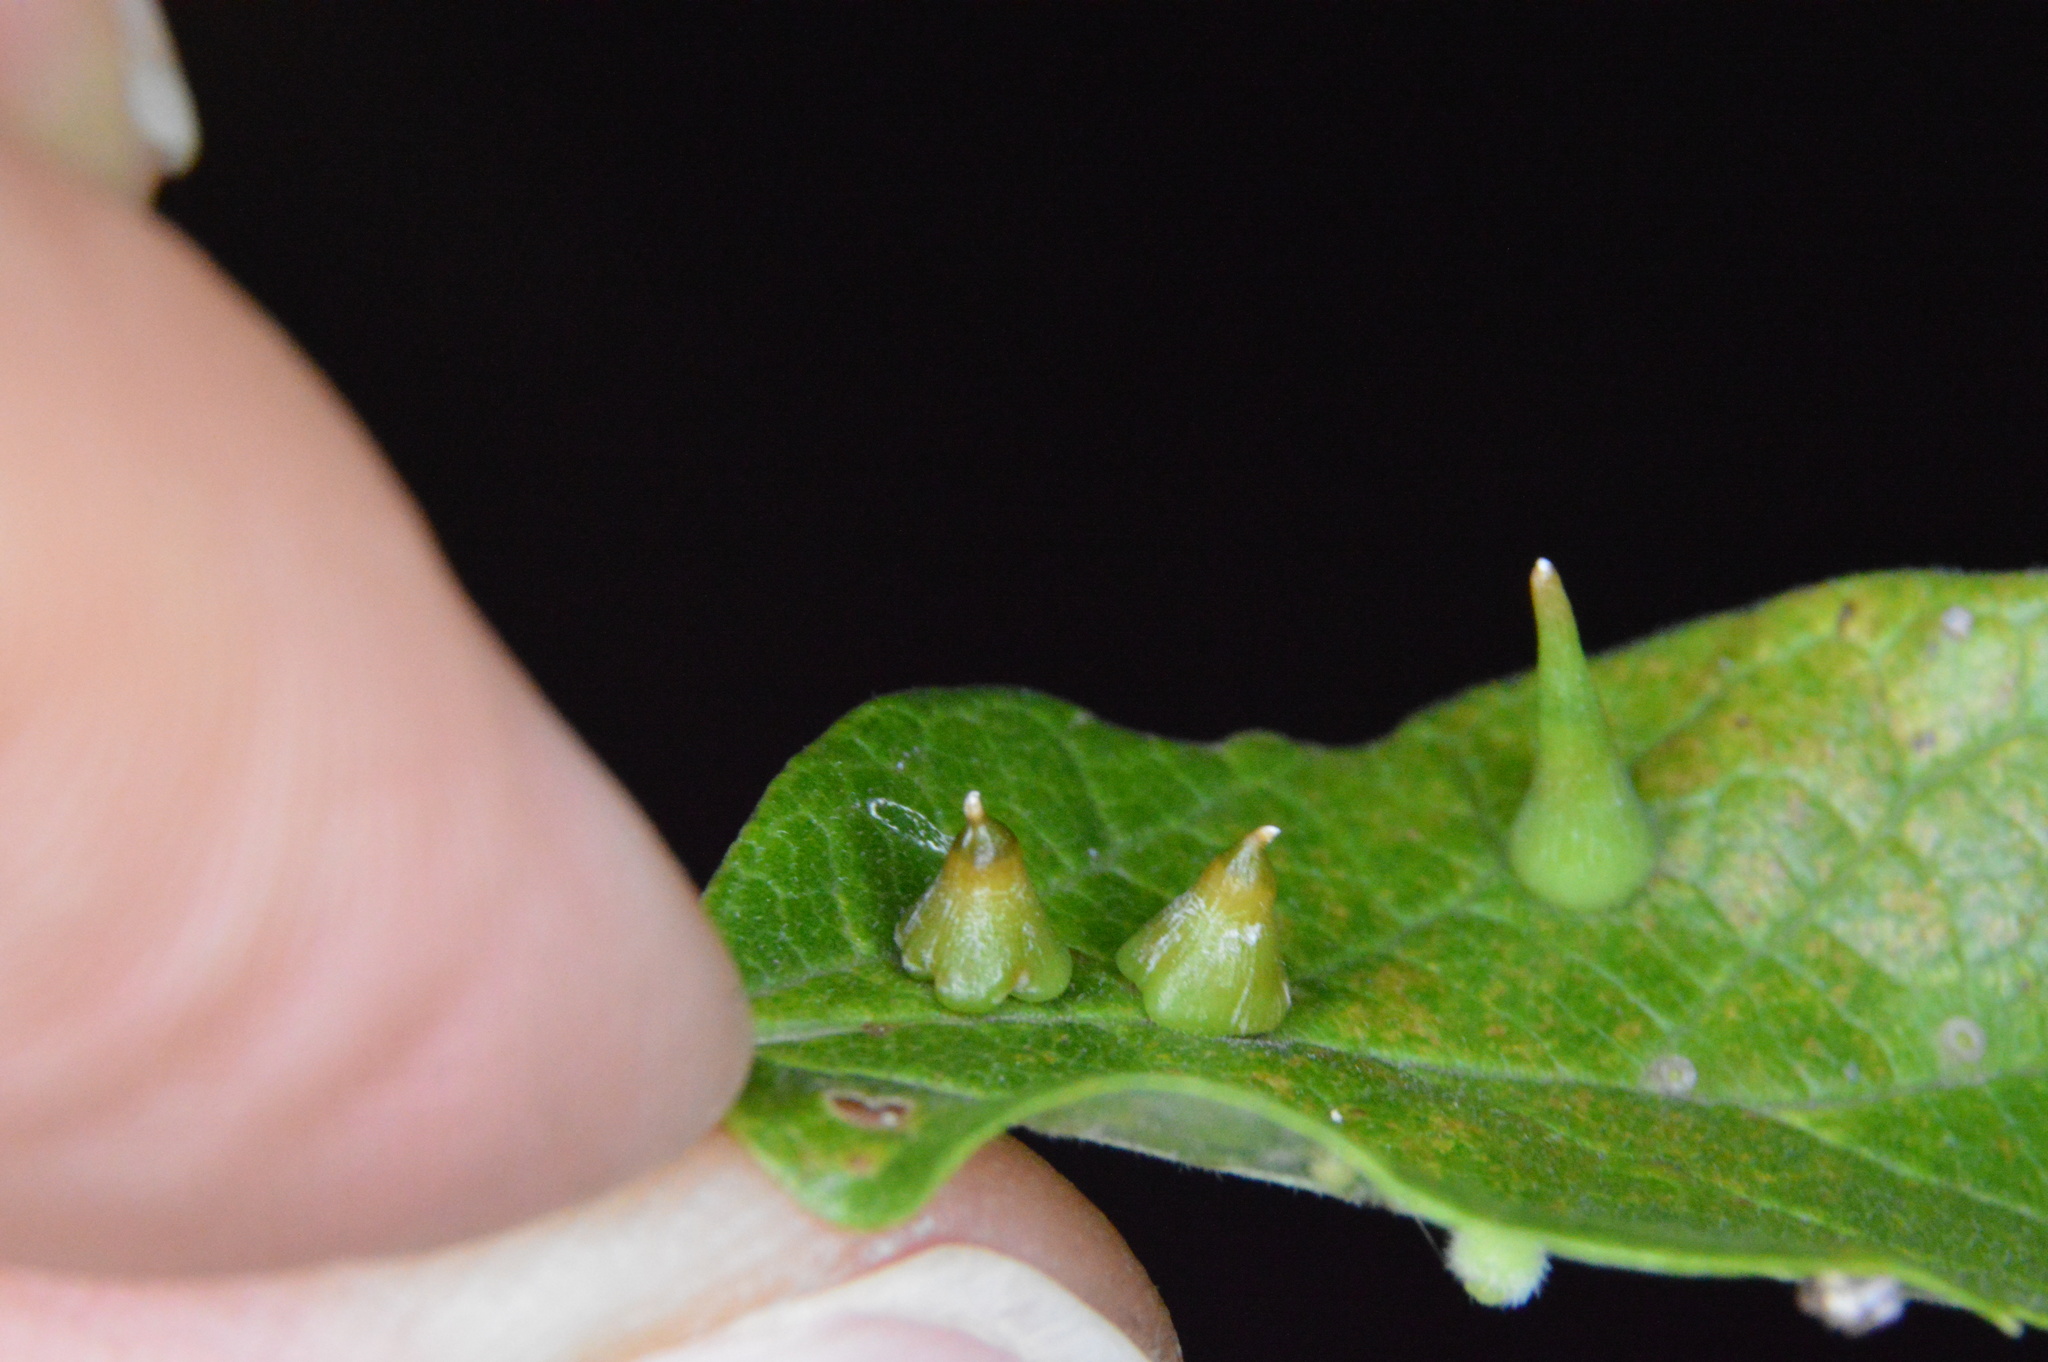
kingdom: Animalia
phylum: Arthropoda
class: Insecta
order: Diptera
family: Cecidomyiidae
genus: Celticecis
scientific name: Celticecis spiniformis
